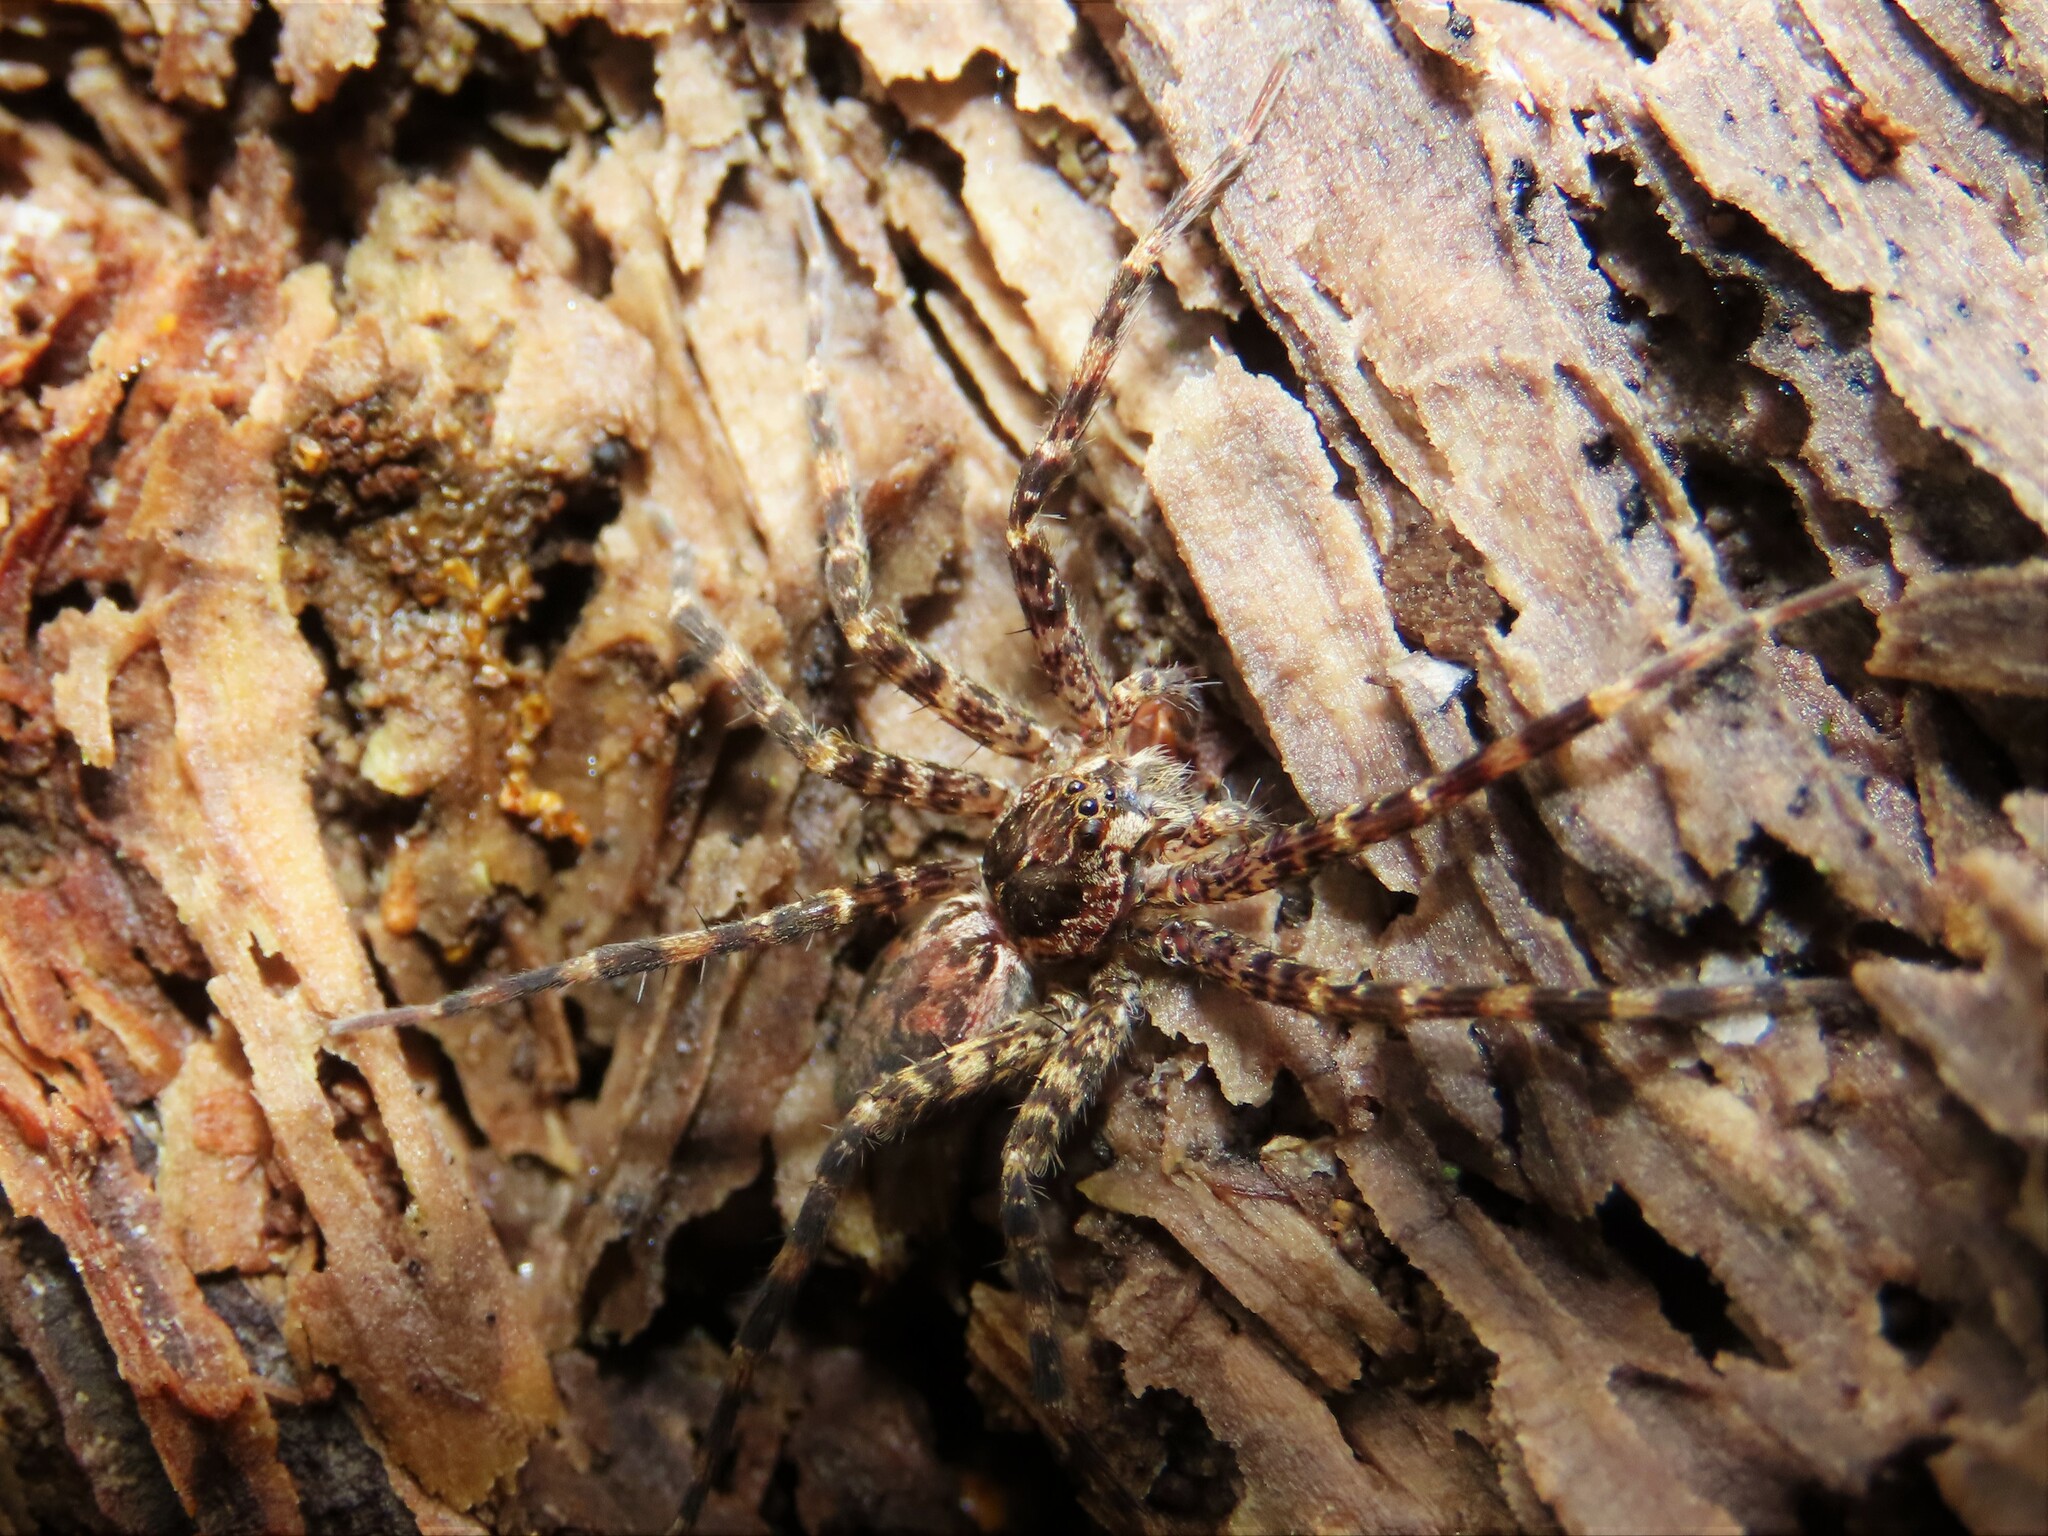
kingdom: Animalia
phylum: Arthropoda
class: Arachnida
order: Araneae
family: Pisauridae
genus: Dolomedes
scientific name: Dolomedes tenebrosus
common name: Dark fishing spider
